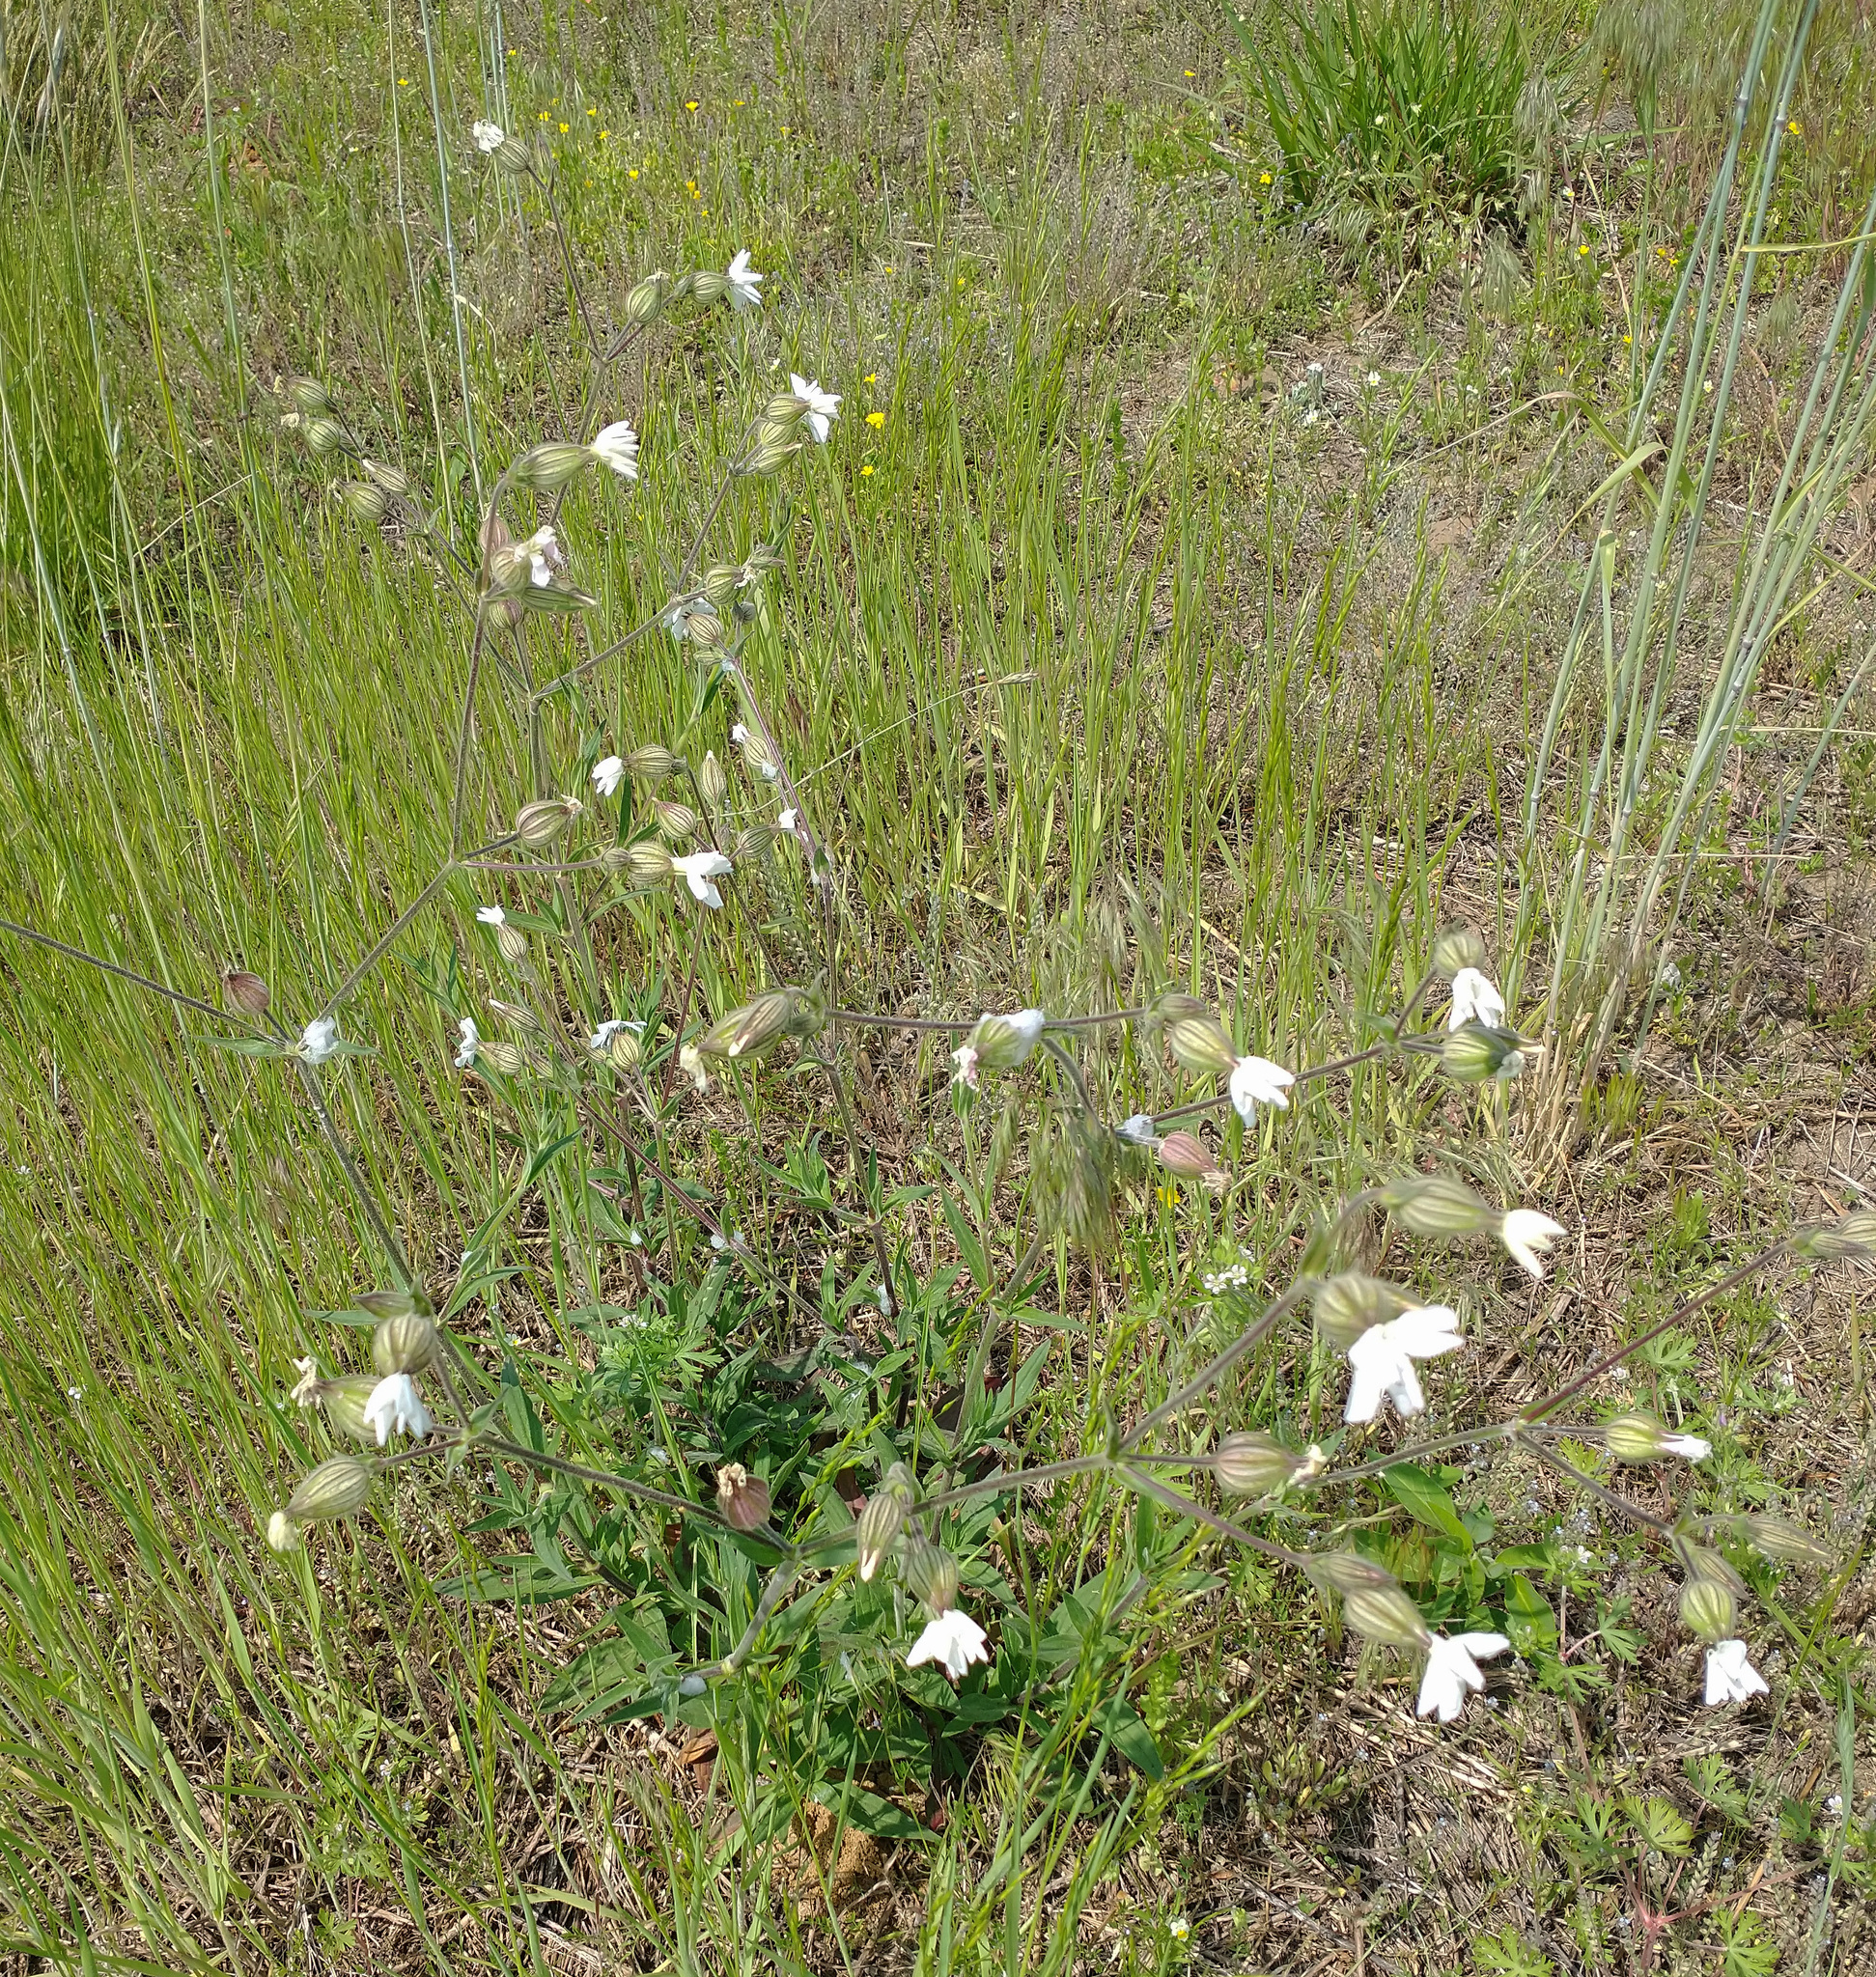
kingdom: Plantae
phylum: Tracheophyta
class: Magnoliopsida
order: Caryophyllales
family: Caryophyllaceae
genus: Silene
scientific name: Silene latifolia
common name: White campion
